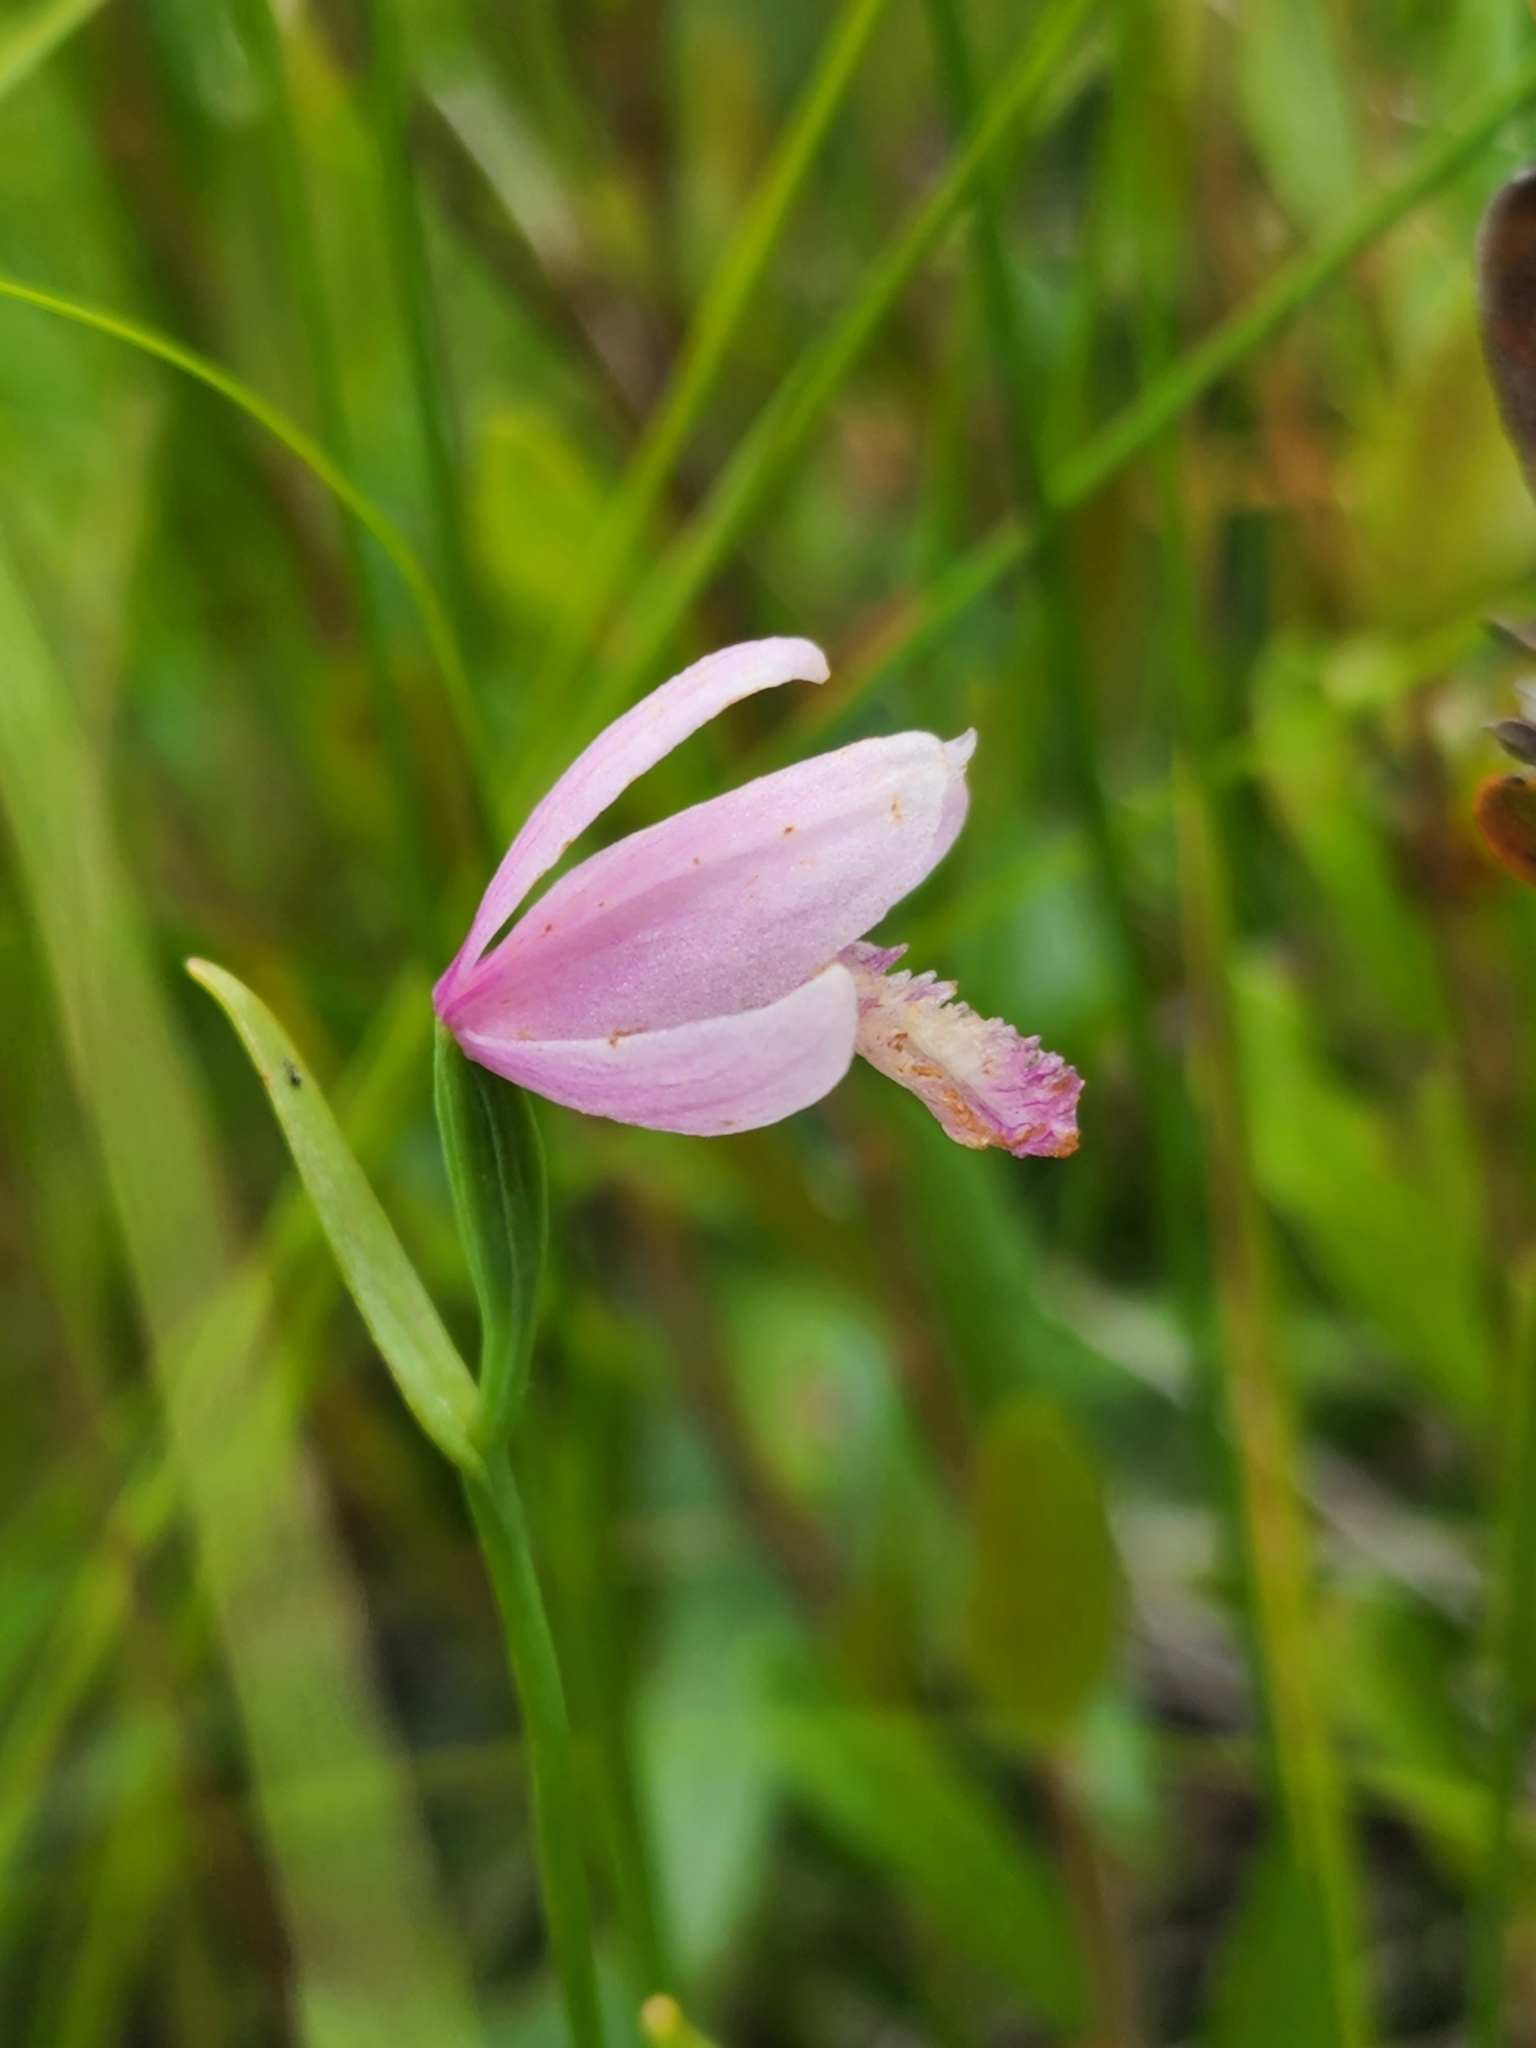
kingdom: Plantae
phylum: Tracheophyta
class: Liliopsida
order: Asparagales
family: Orchidaceae
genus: Pogonia
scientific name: Pogonia ophioglossoides
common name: Rose pogonia
